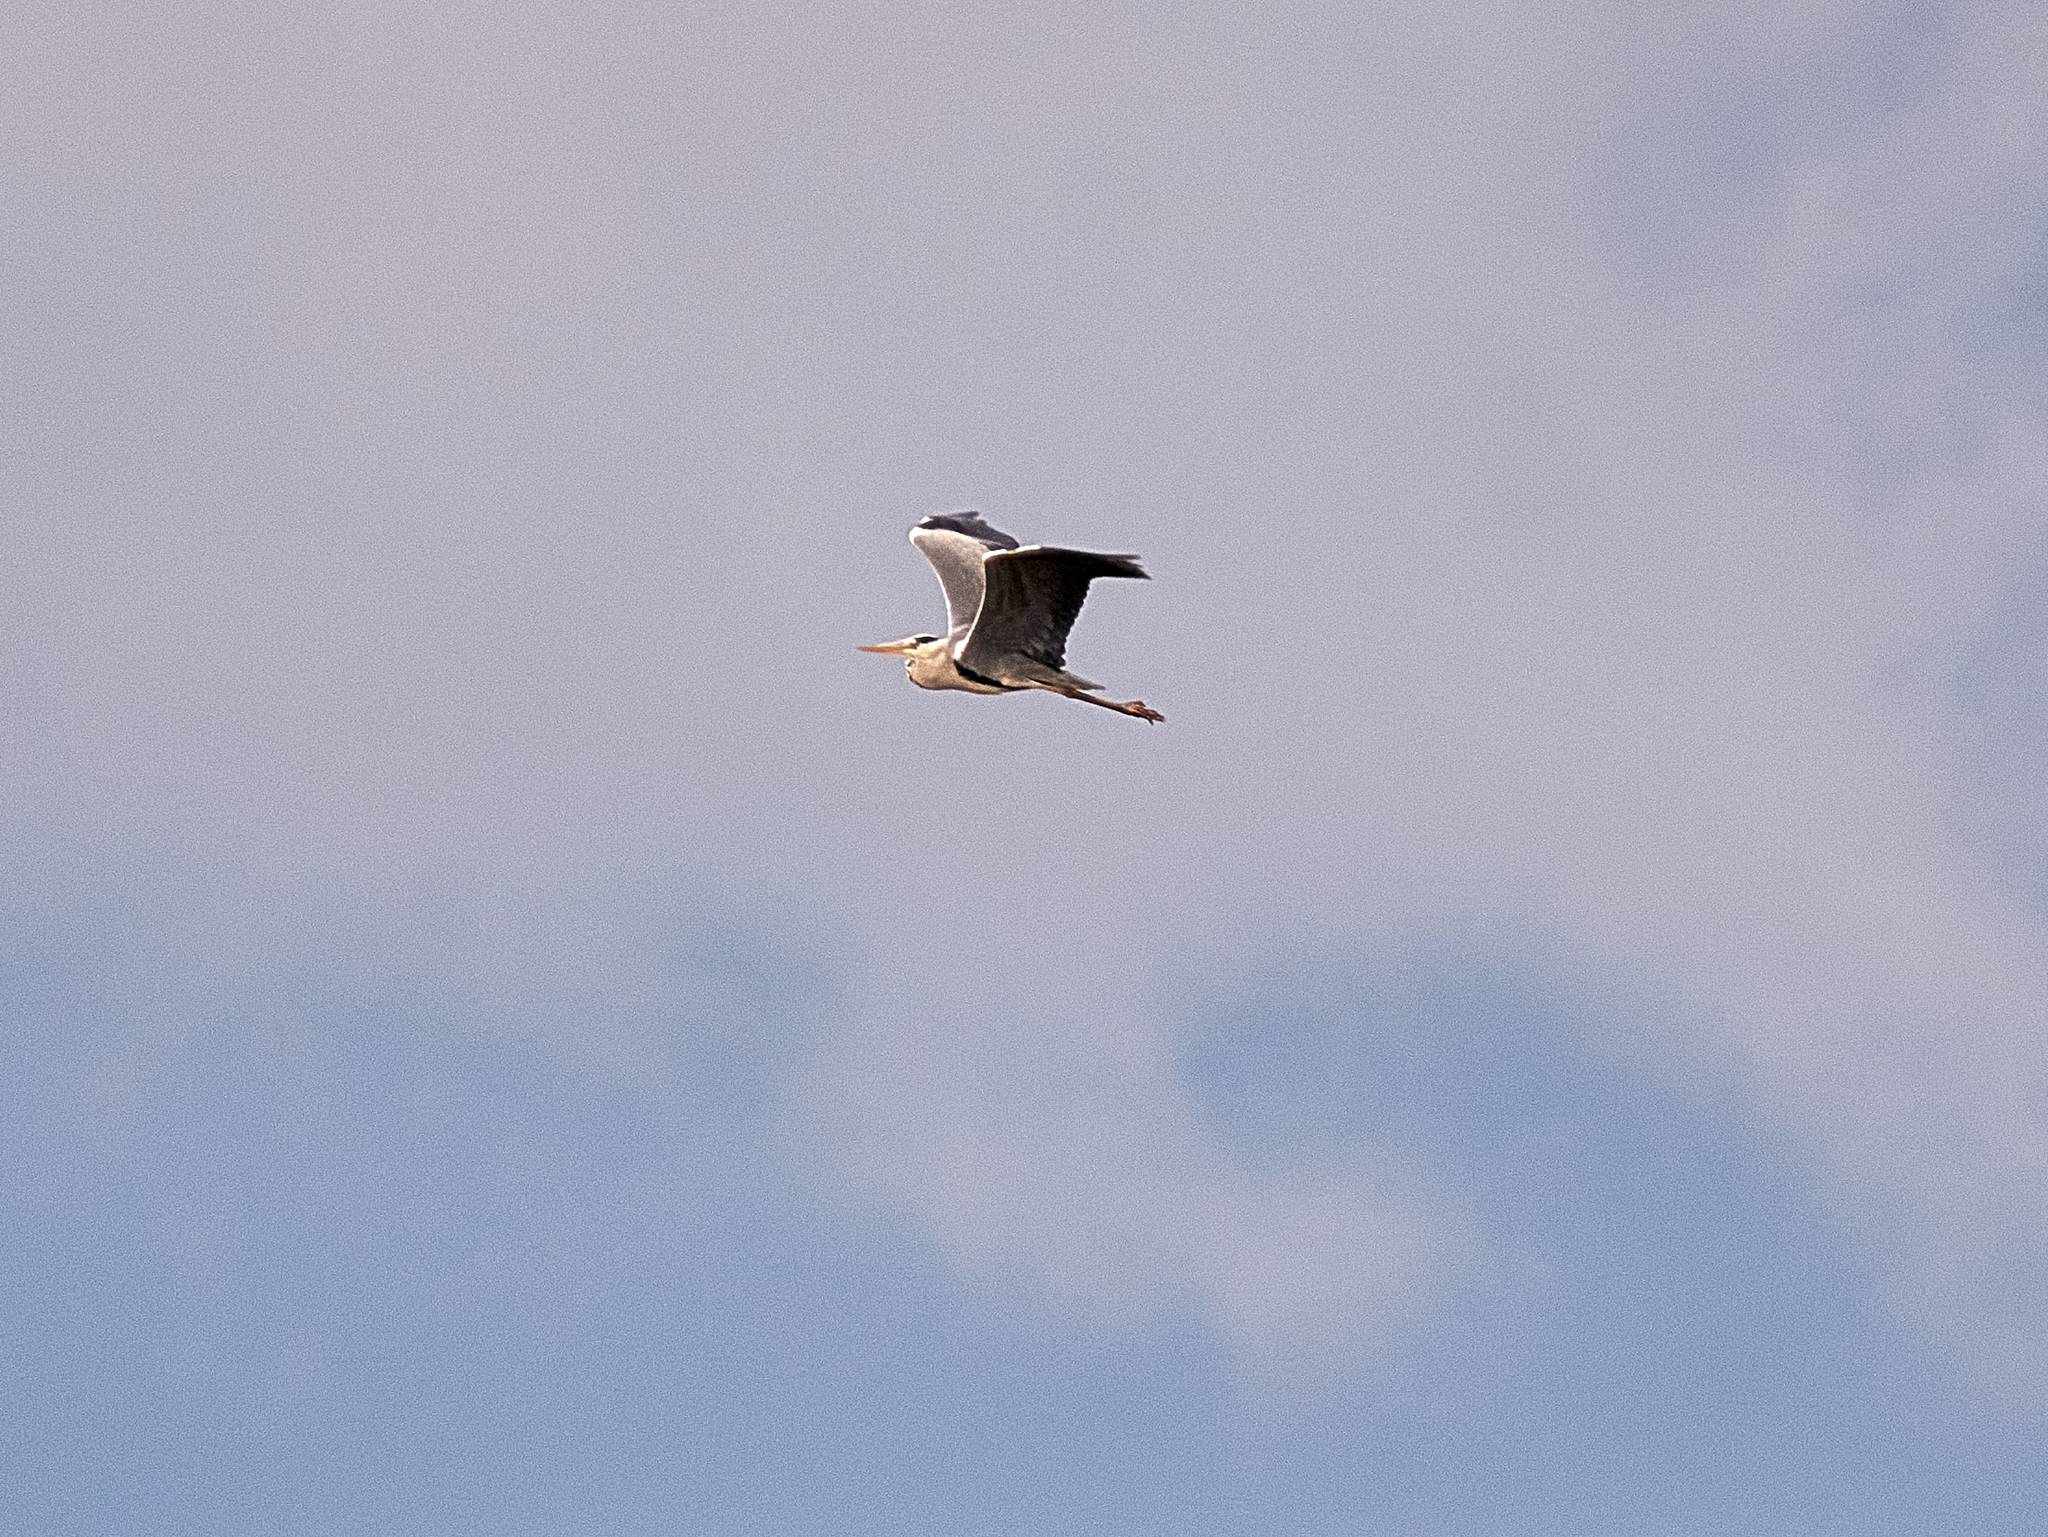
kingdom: Animalia
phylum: Chordata
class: Aves
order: Pelecaniformes
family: Ardeidae
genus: Ardea
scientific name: Ardea cinerea
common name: Grey heron
